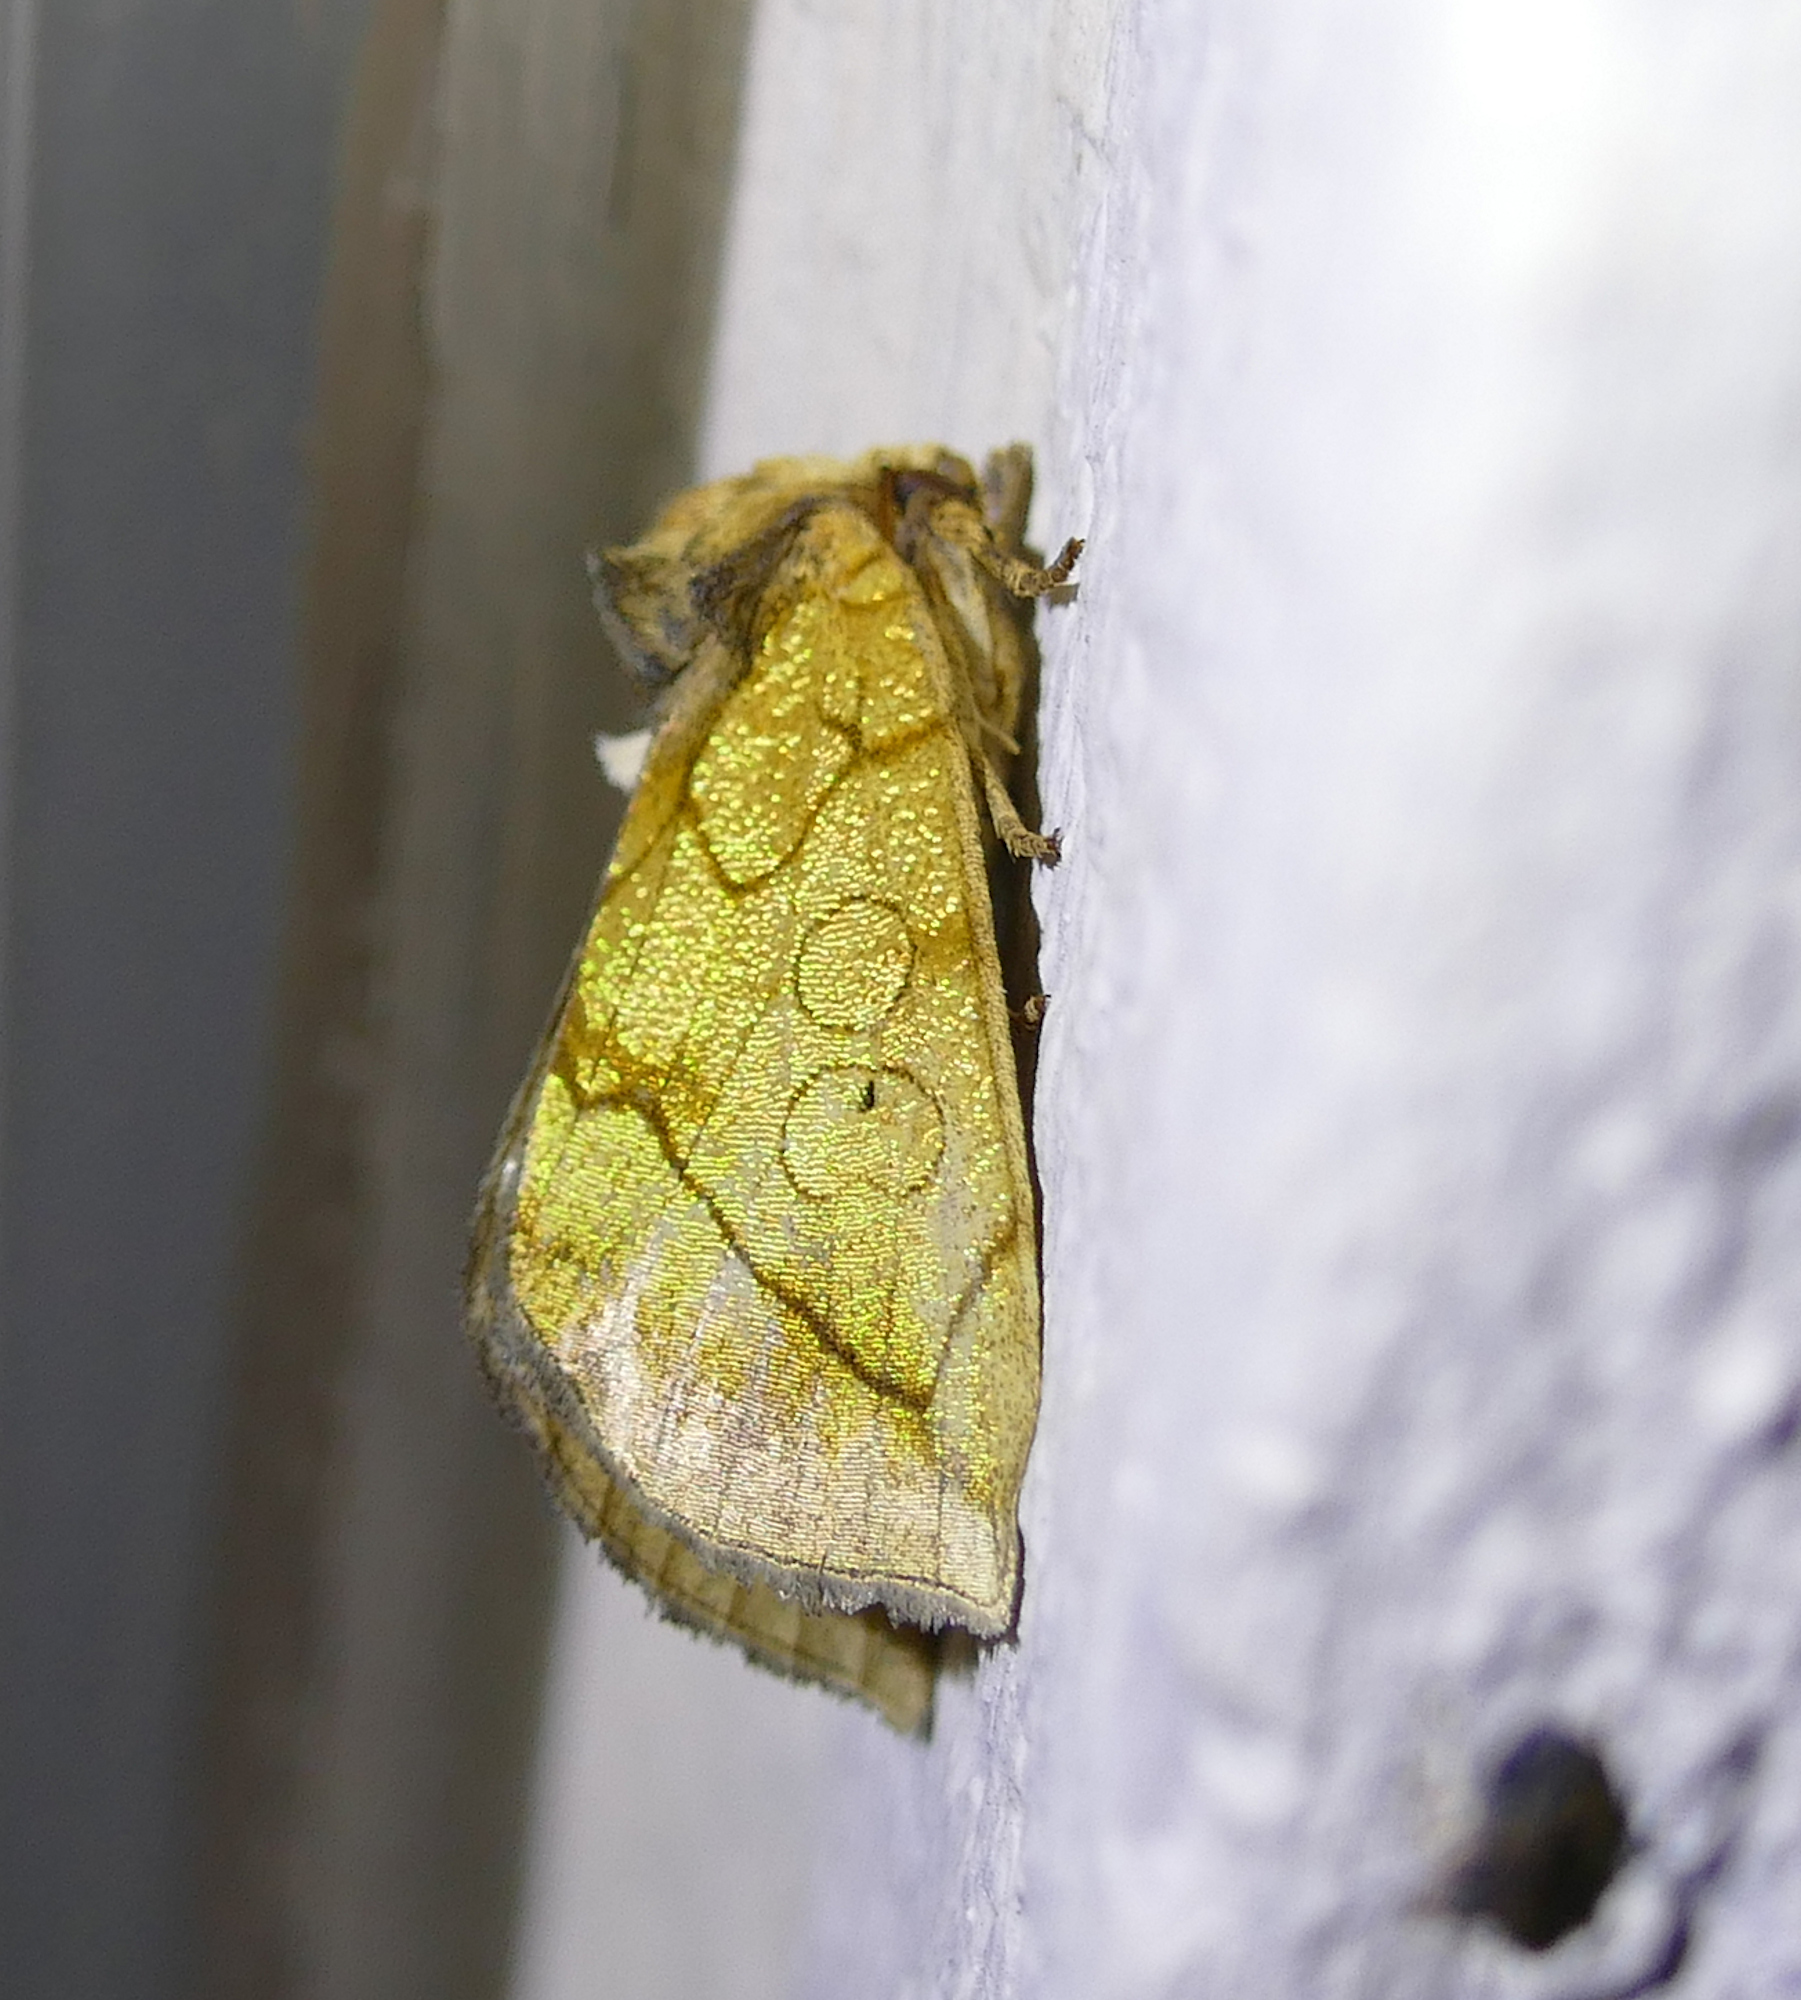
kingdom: Animalia
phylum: Arthropoda
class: Insecta
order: Lepidoptera
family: Noctuidae
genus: Basilodes
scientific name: Basilodes pepita
